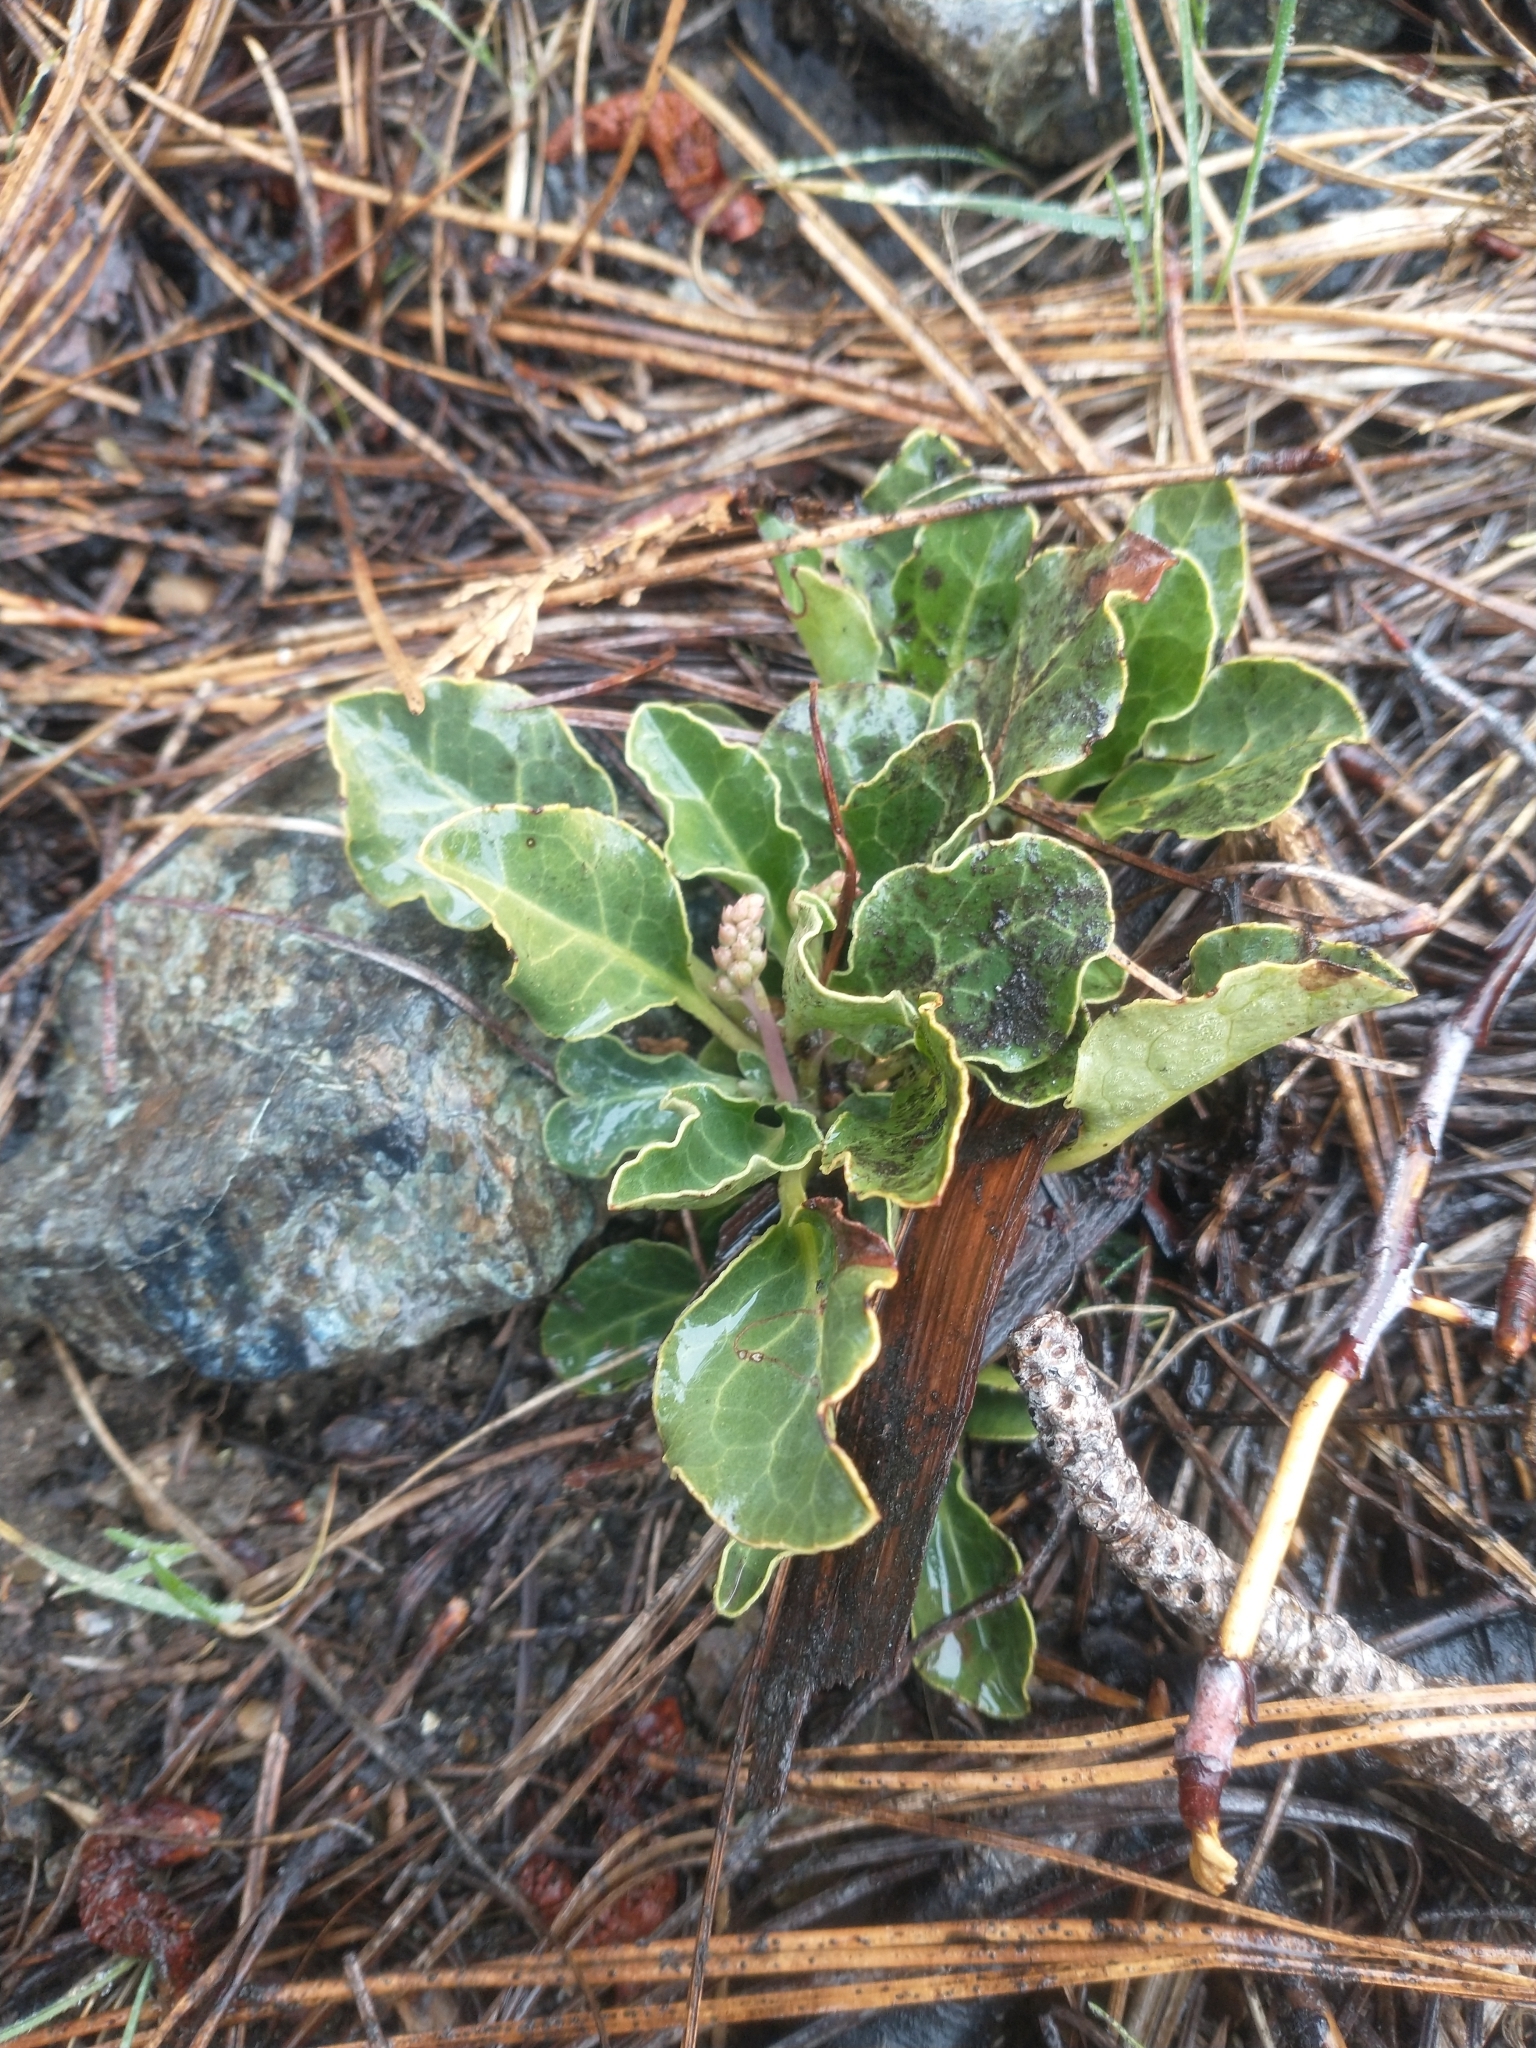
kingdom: Plantae
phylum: Tracheophyta
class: Magnoliopsida
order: Ericales
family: Ericaceae
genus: Pyrola
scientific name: Pyrola dentata
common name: Tooth-leaved wintergreen
